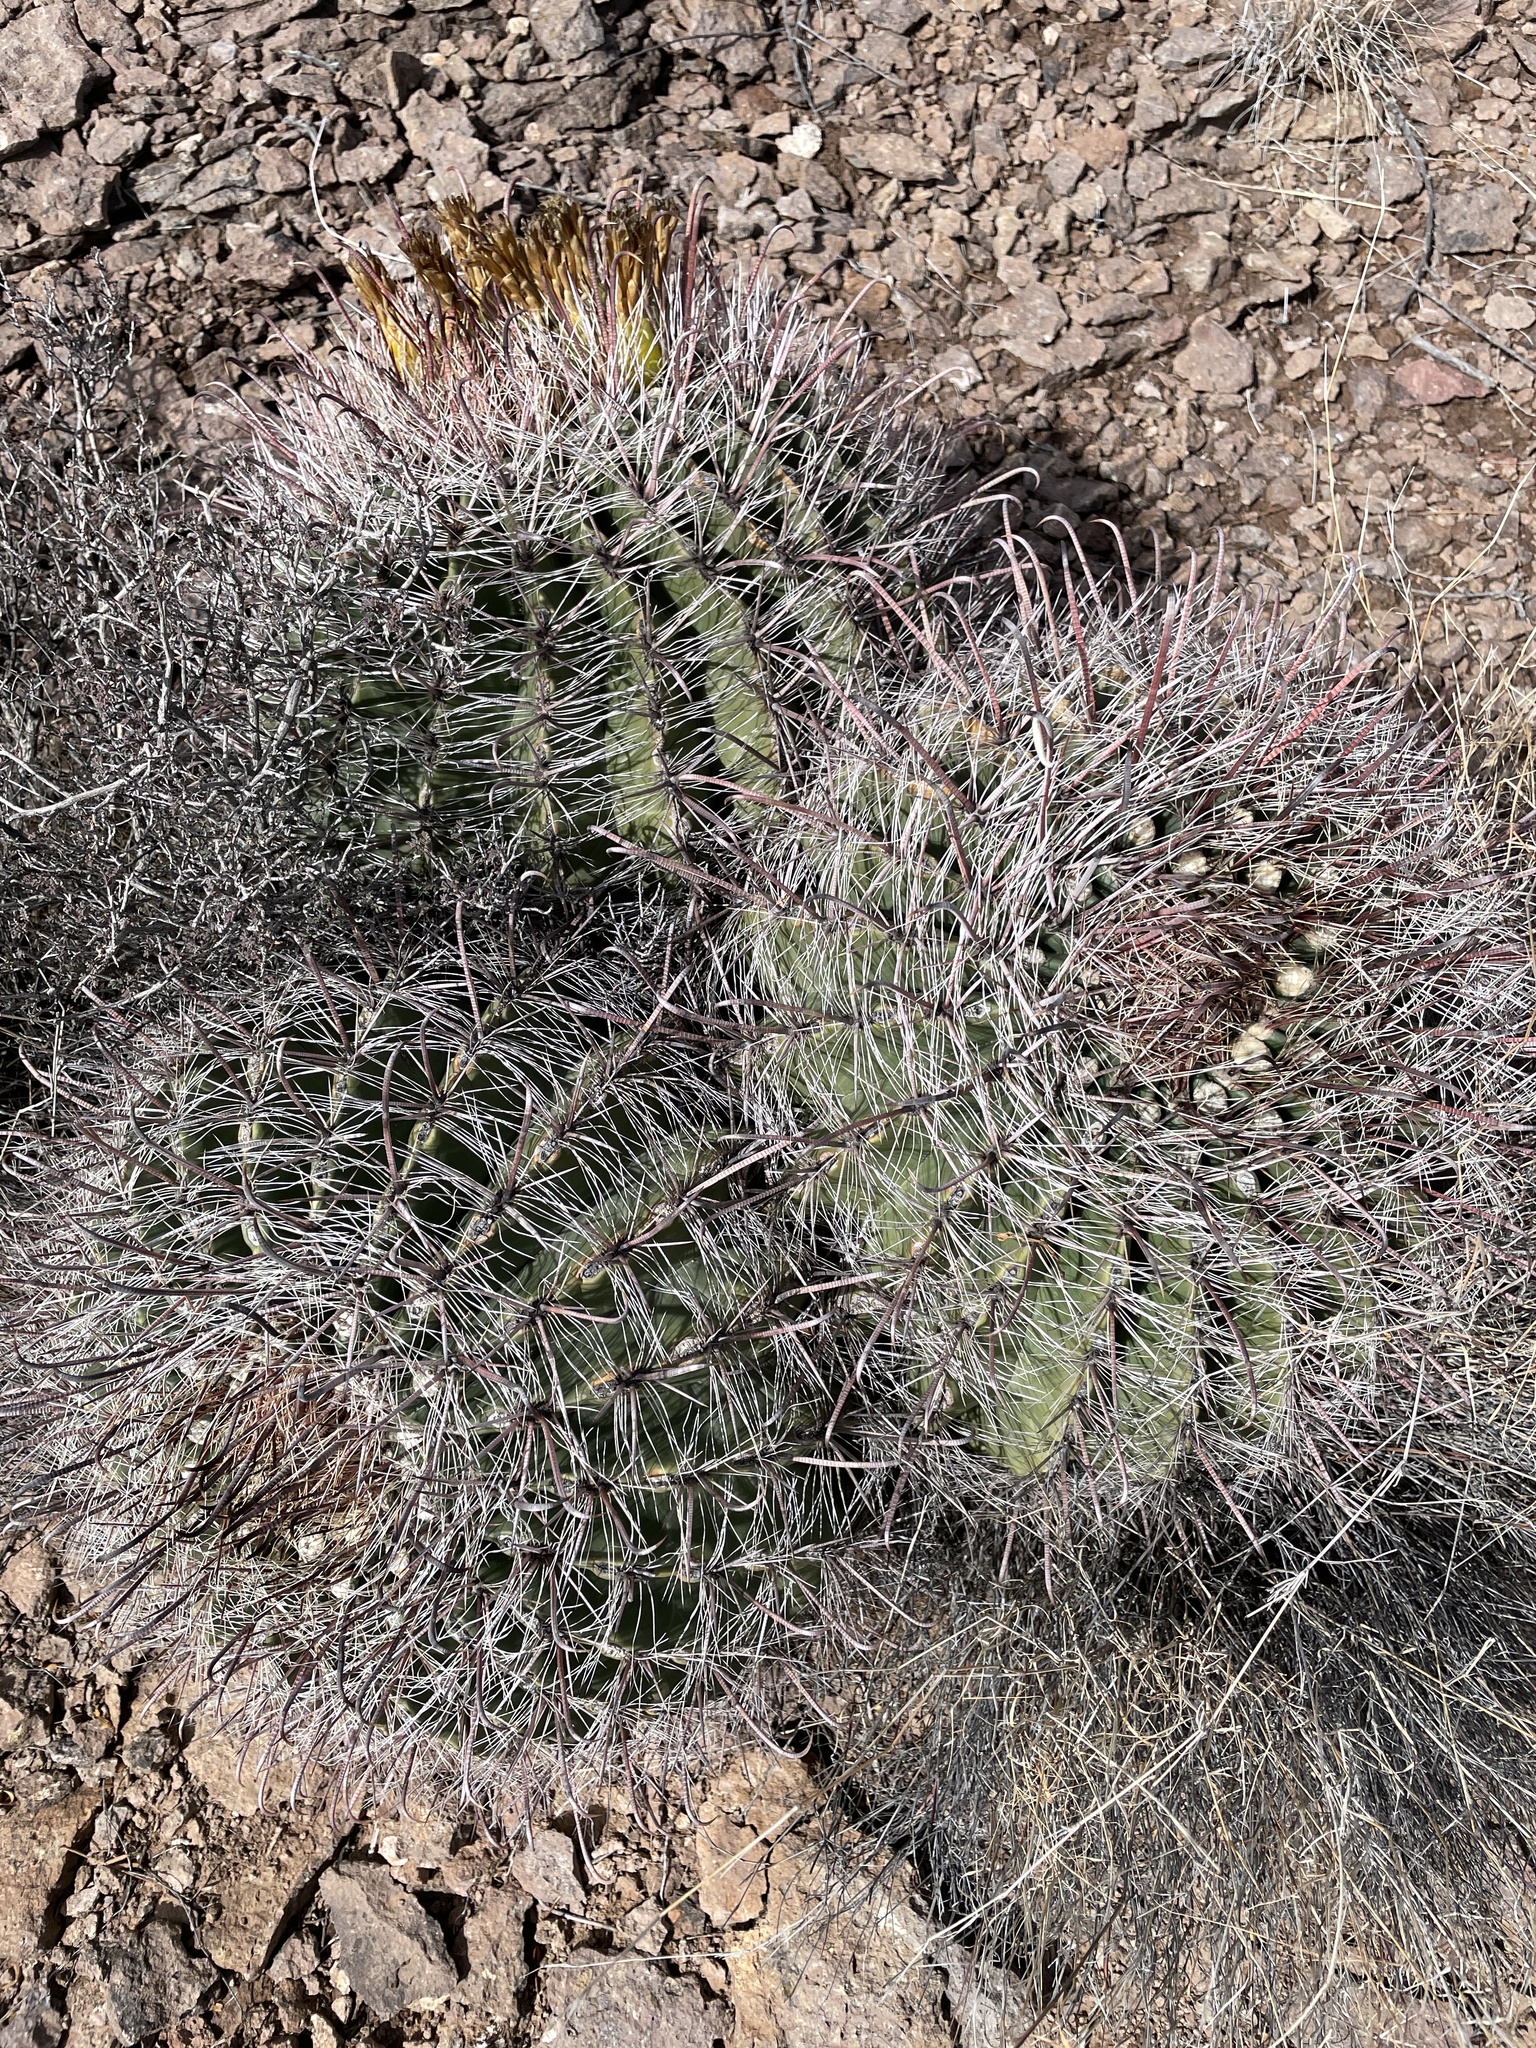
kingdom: Plantae
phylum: Tracheophyta
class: Magnoliopsida
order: Caryophyllales
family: Cactaceae
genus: Ferocactus
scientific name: Ferocactus wislizeni
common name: Candy barrel cactus
